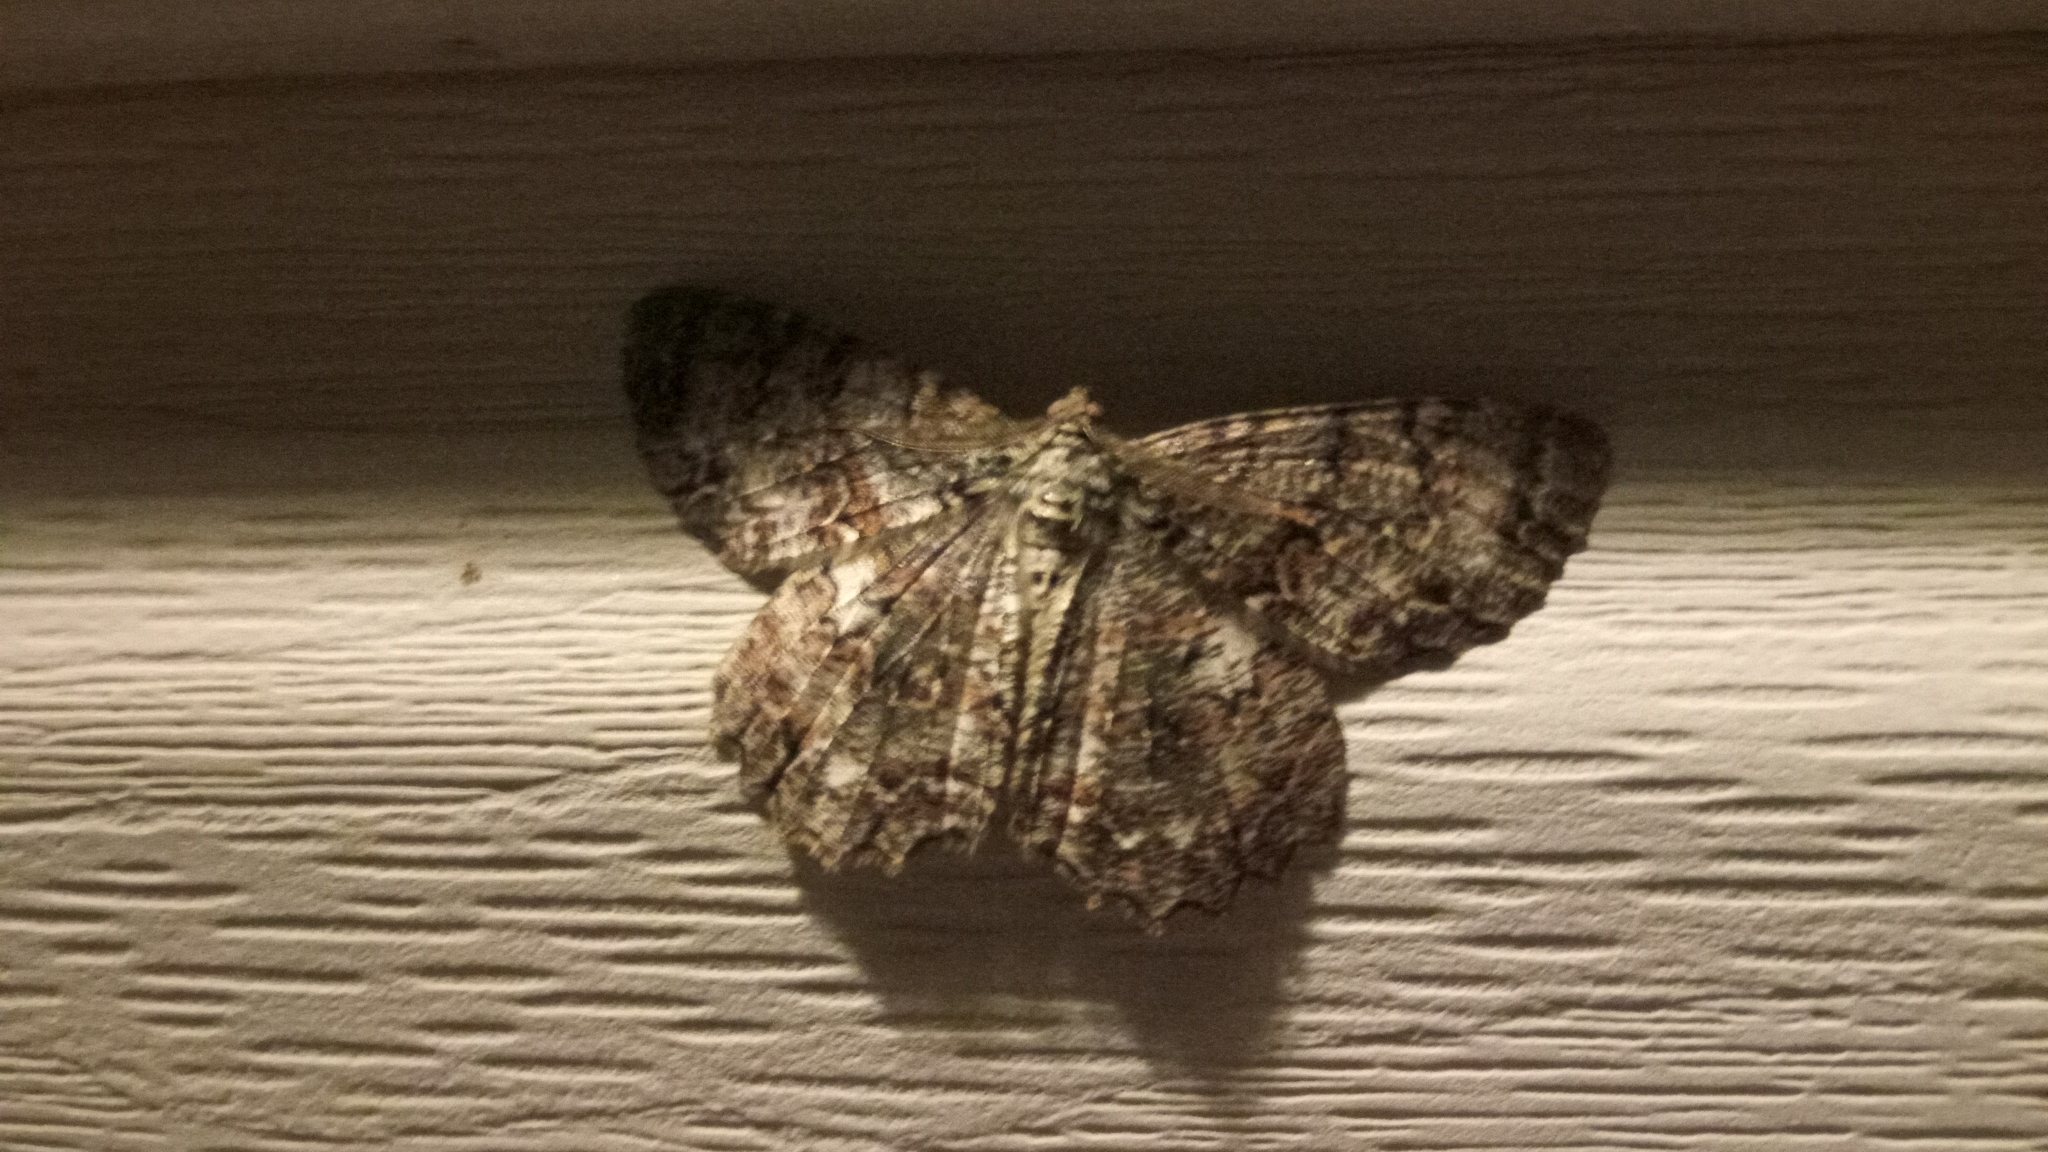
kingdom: Animalia
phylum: Arthropoda
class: Insecta
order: Lepidoptera
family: Geometridae
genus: Epimecis
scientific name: Epimecis hortaria
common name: Tulip-tree beauty
